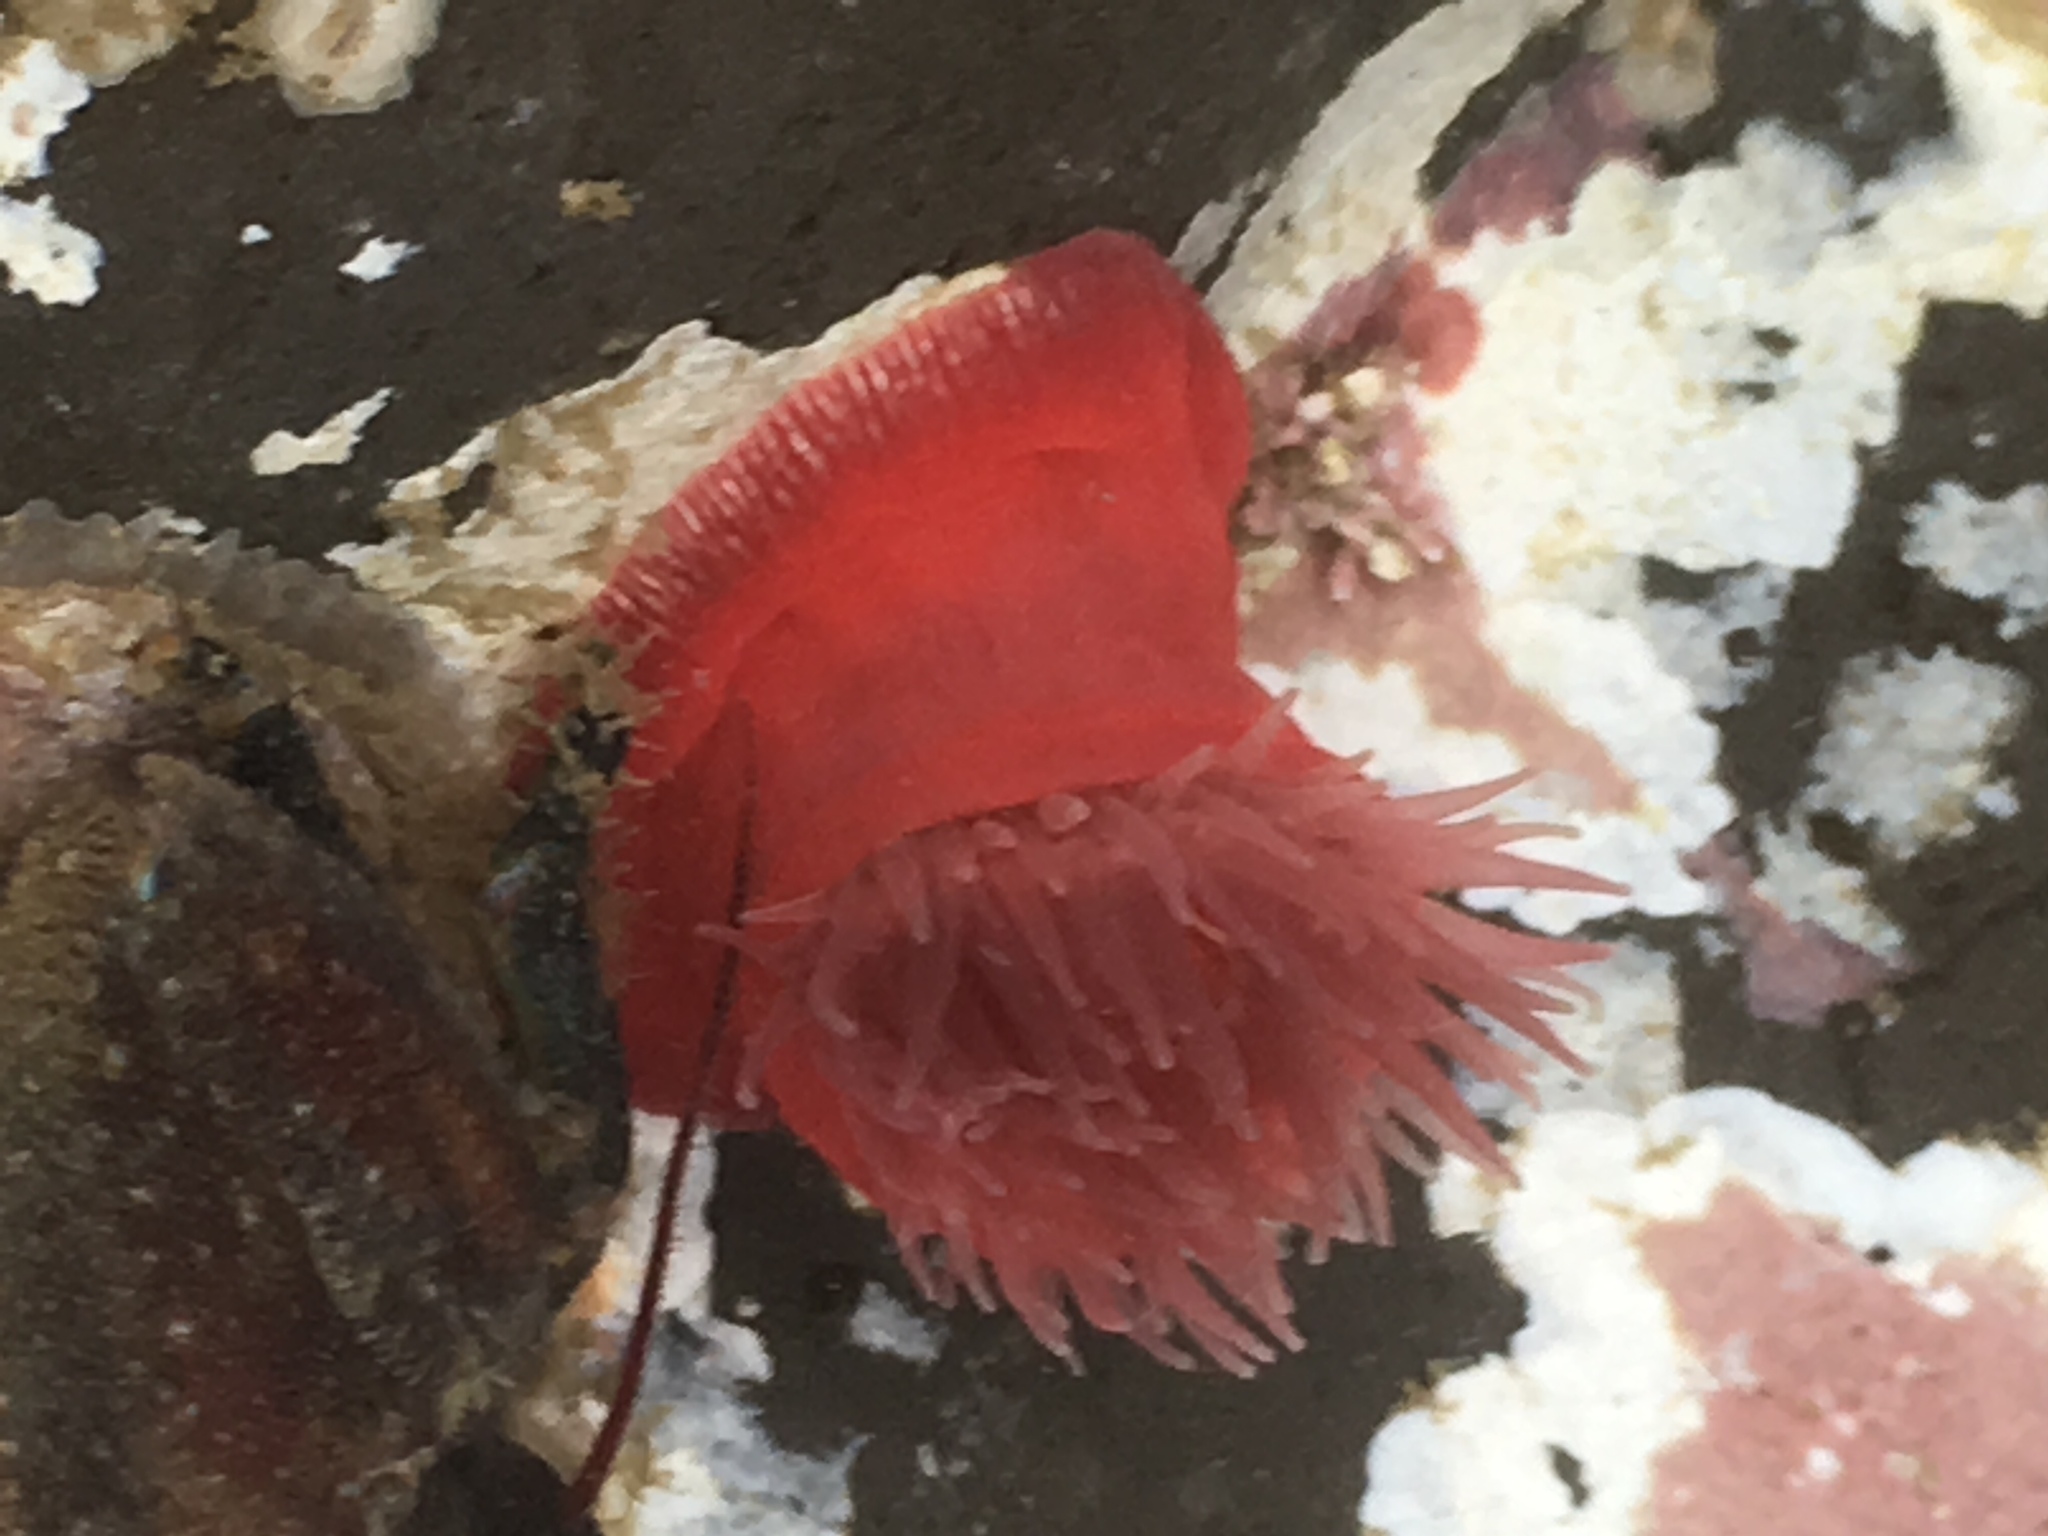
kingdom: Animalia
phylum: Cnidaria
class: Anthozoa
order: Actiniaria
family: Actiniidae
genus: Epiactis
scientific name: Epiactis prolifera
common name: Brooding anemone
